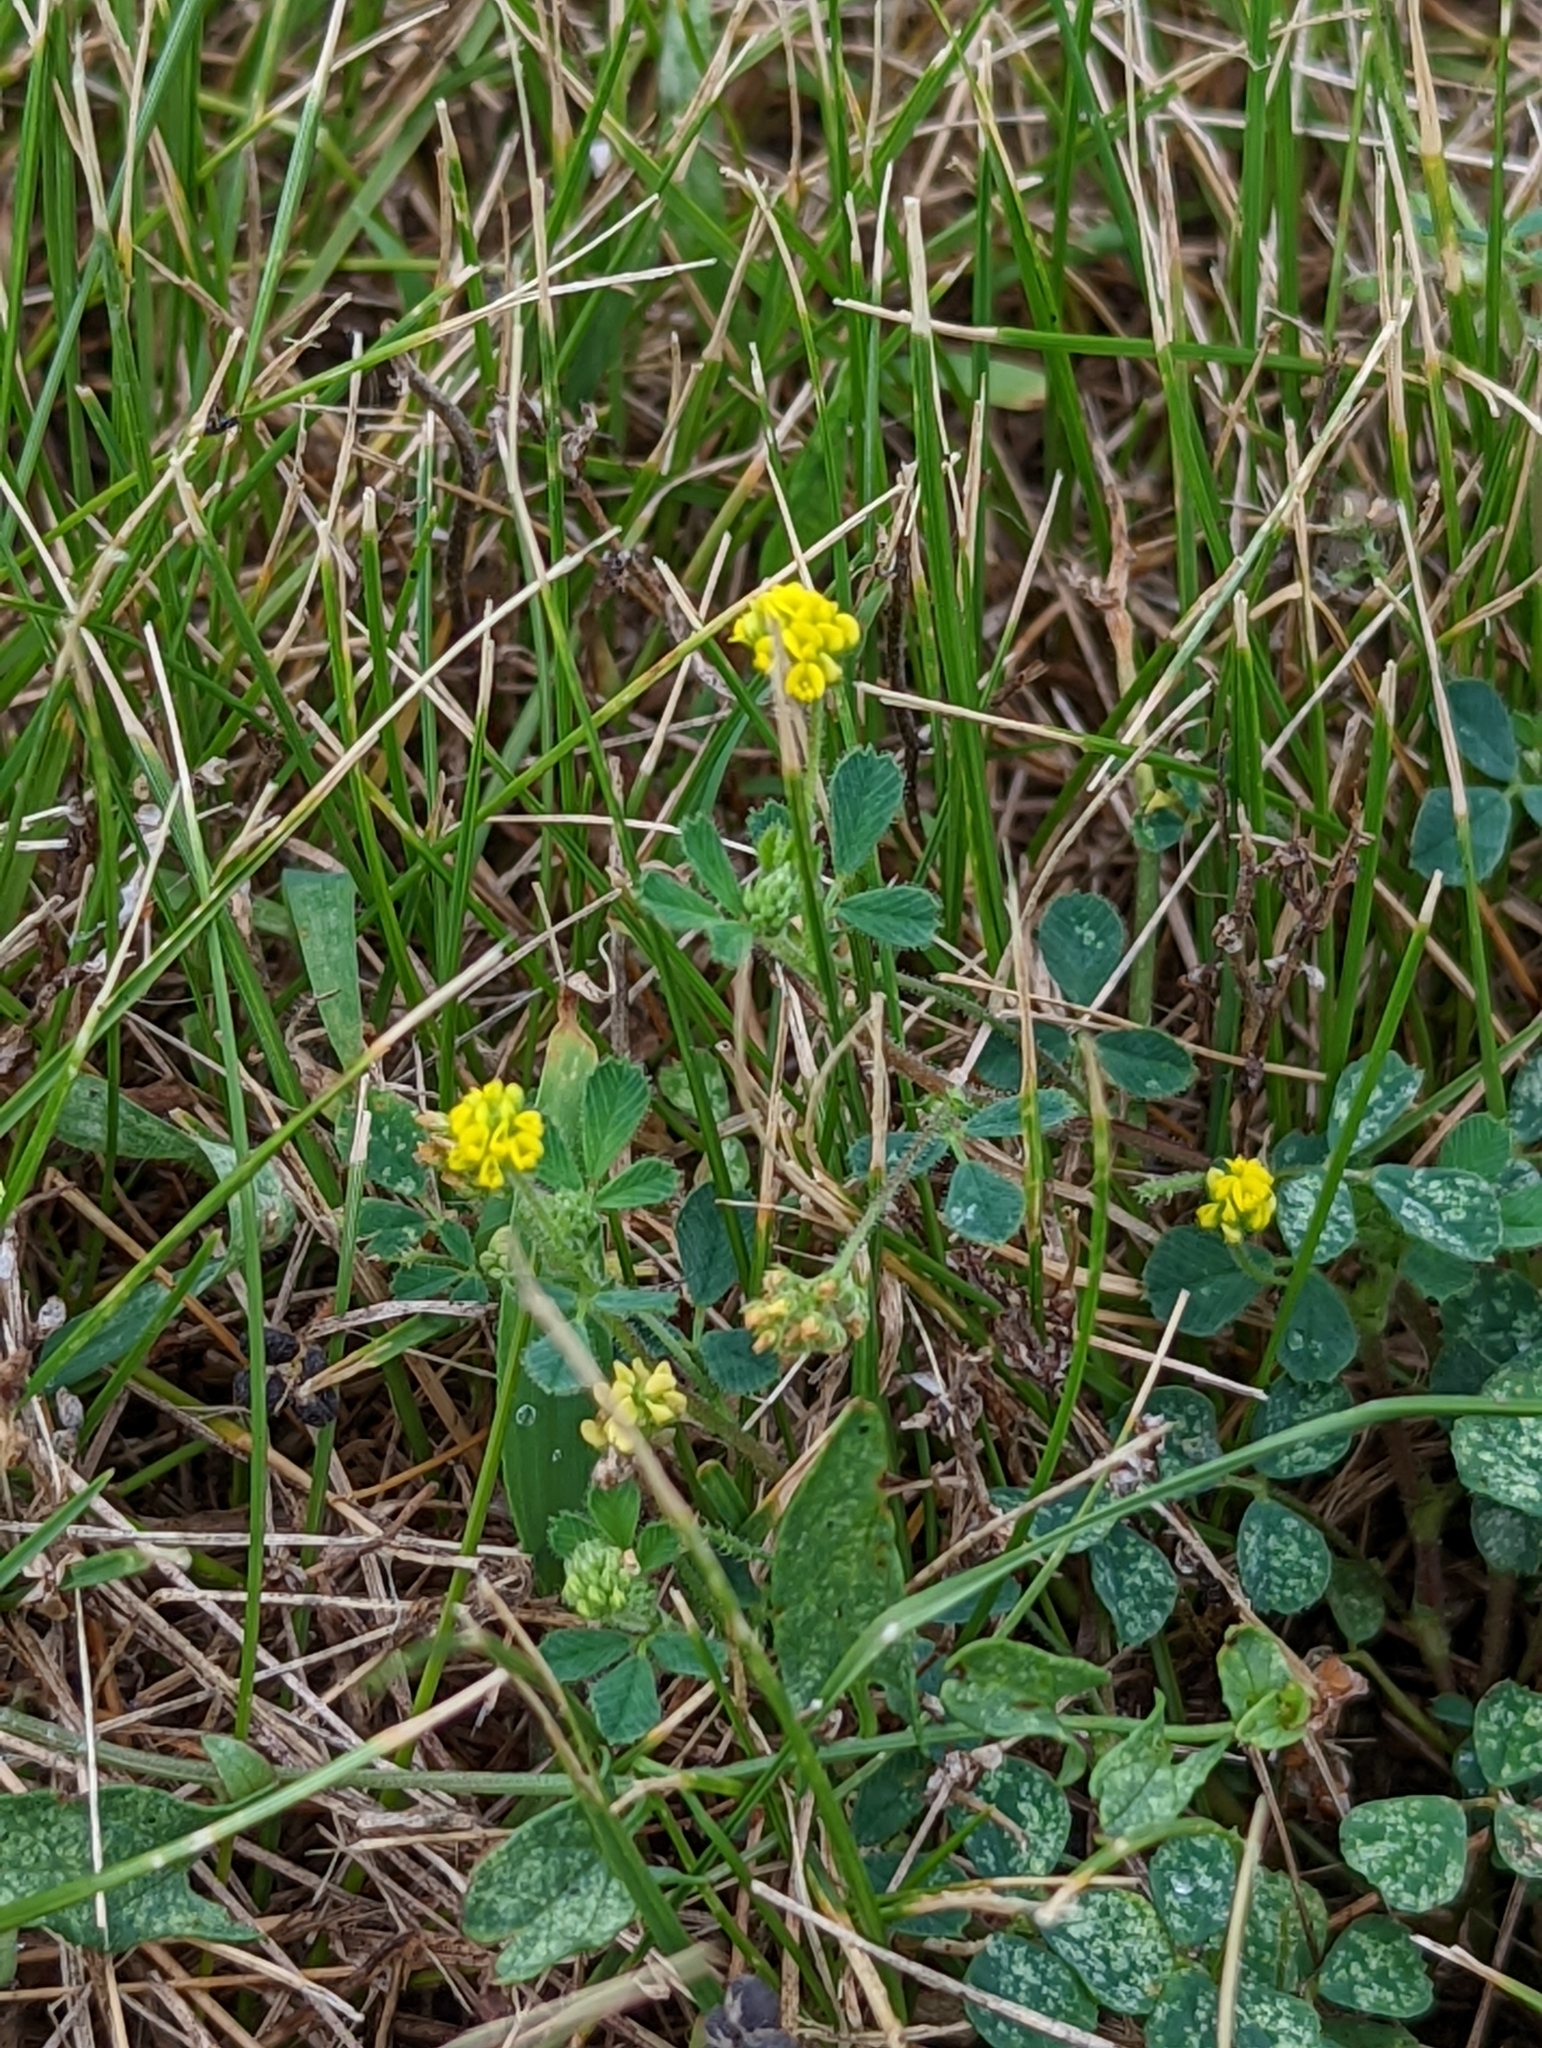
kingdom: Plantae
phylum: Tracheophyta
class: Magnoliopsida
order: Fabales
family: Fabaceae
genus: Medicago
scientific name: Medicago lupulina
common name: Black medick
